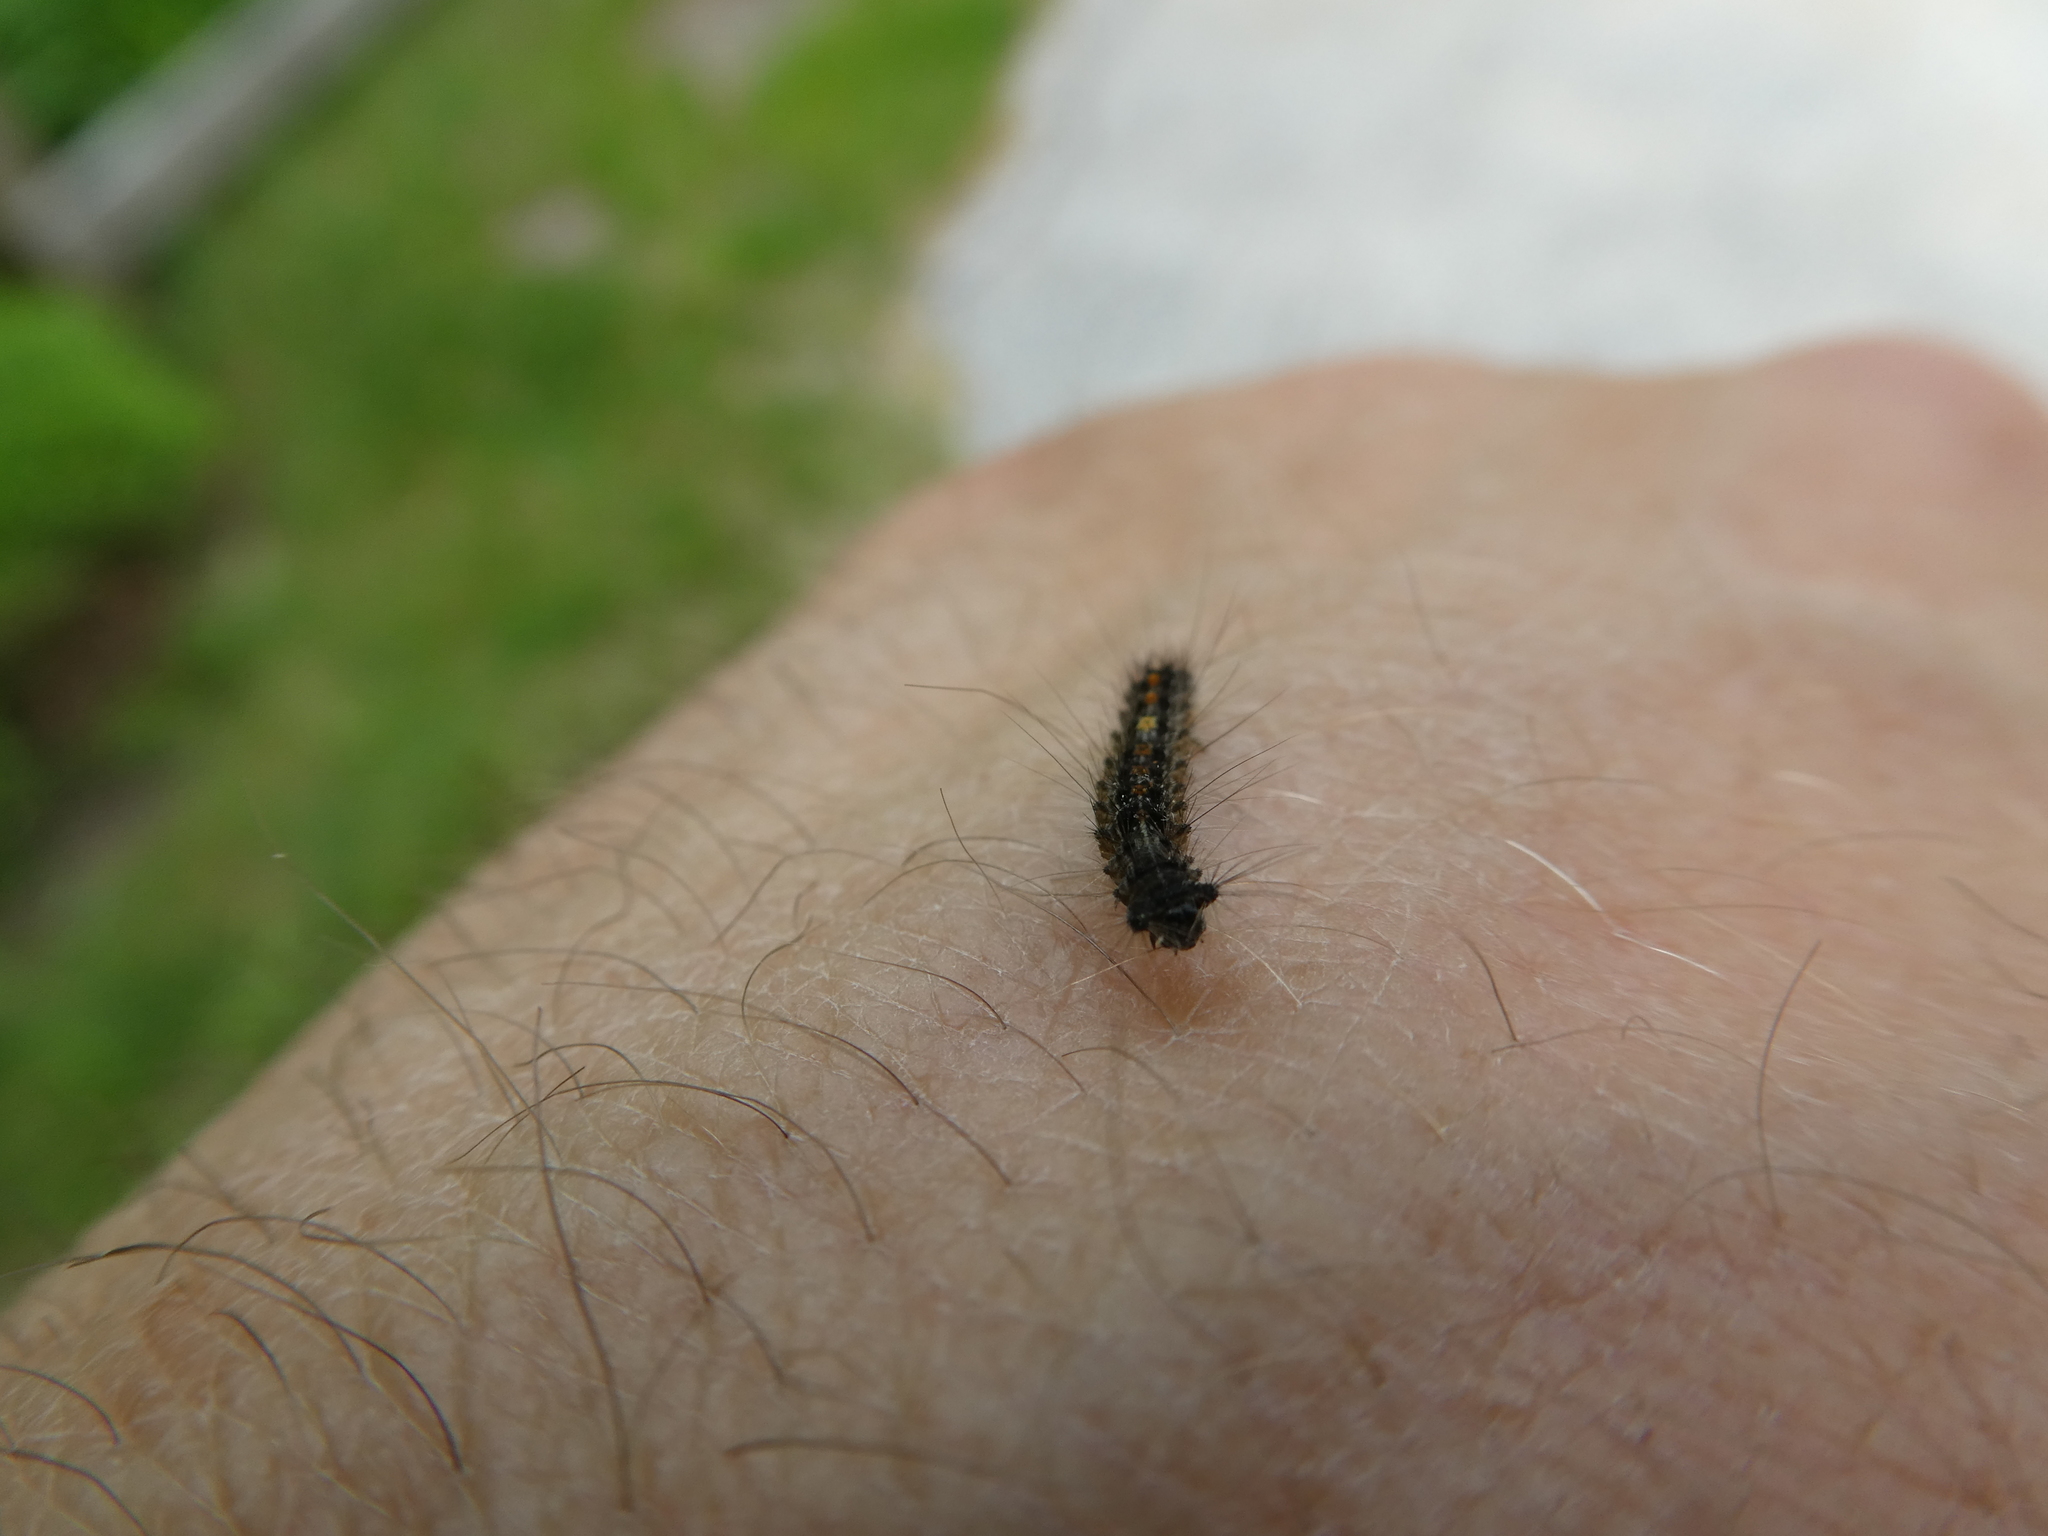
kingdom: Animalia
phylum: Arthropoda
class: Insecta
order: Lepidoptera
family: Erebidae
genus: Lymantria
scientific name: Lymantria dispar
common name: Gypsy moth
